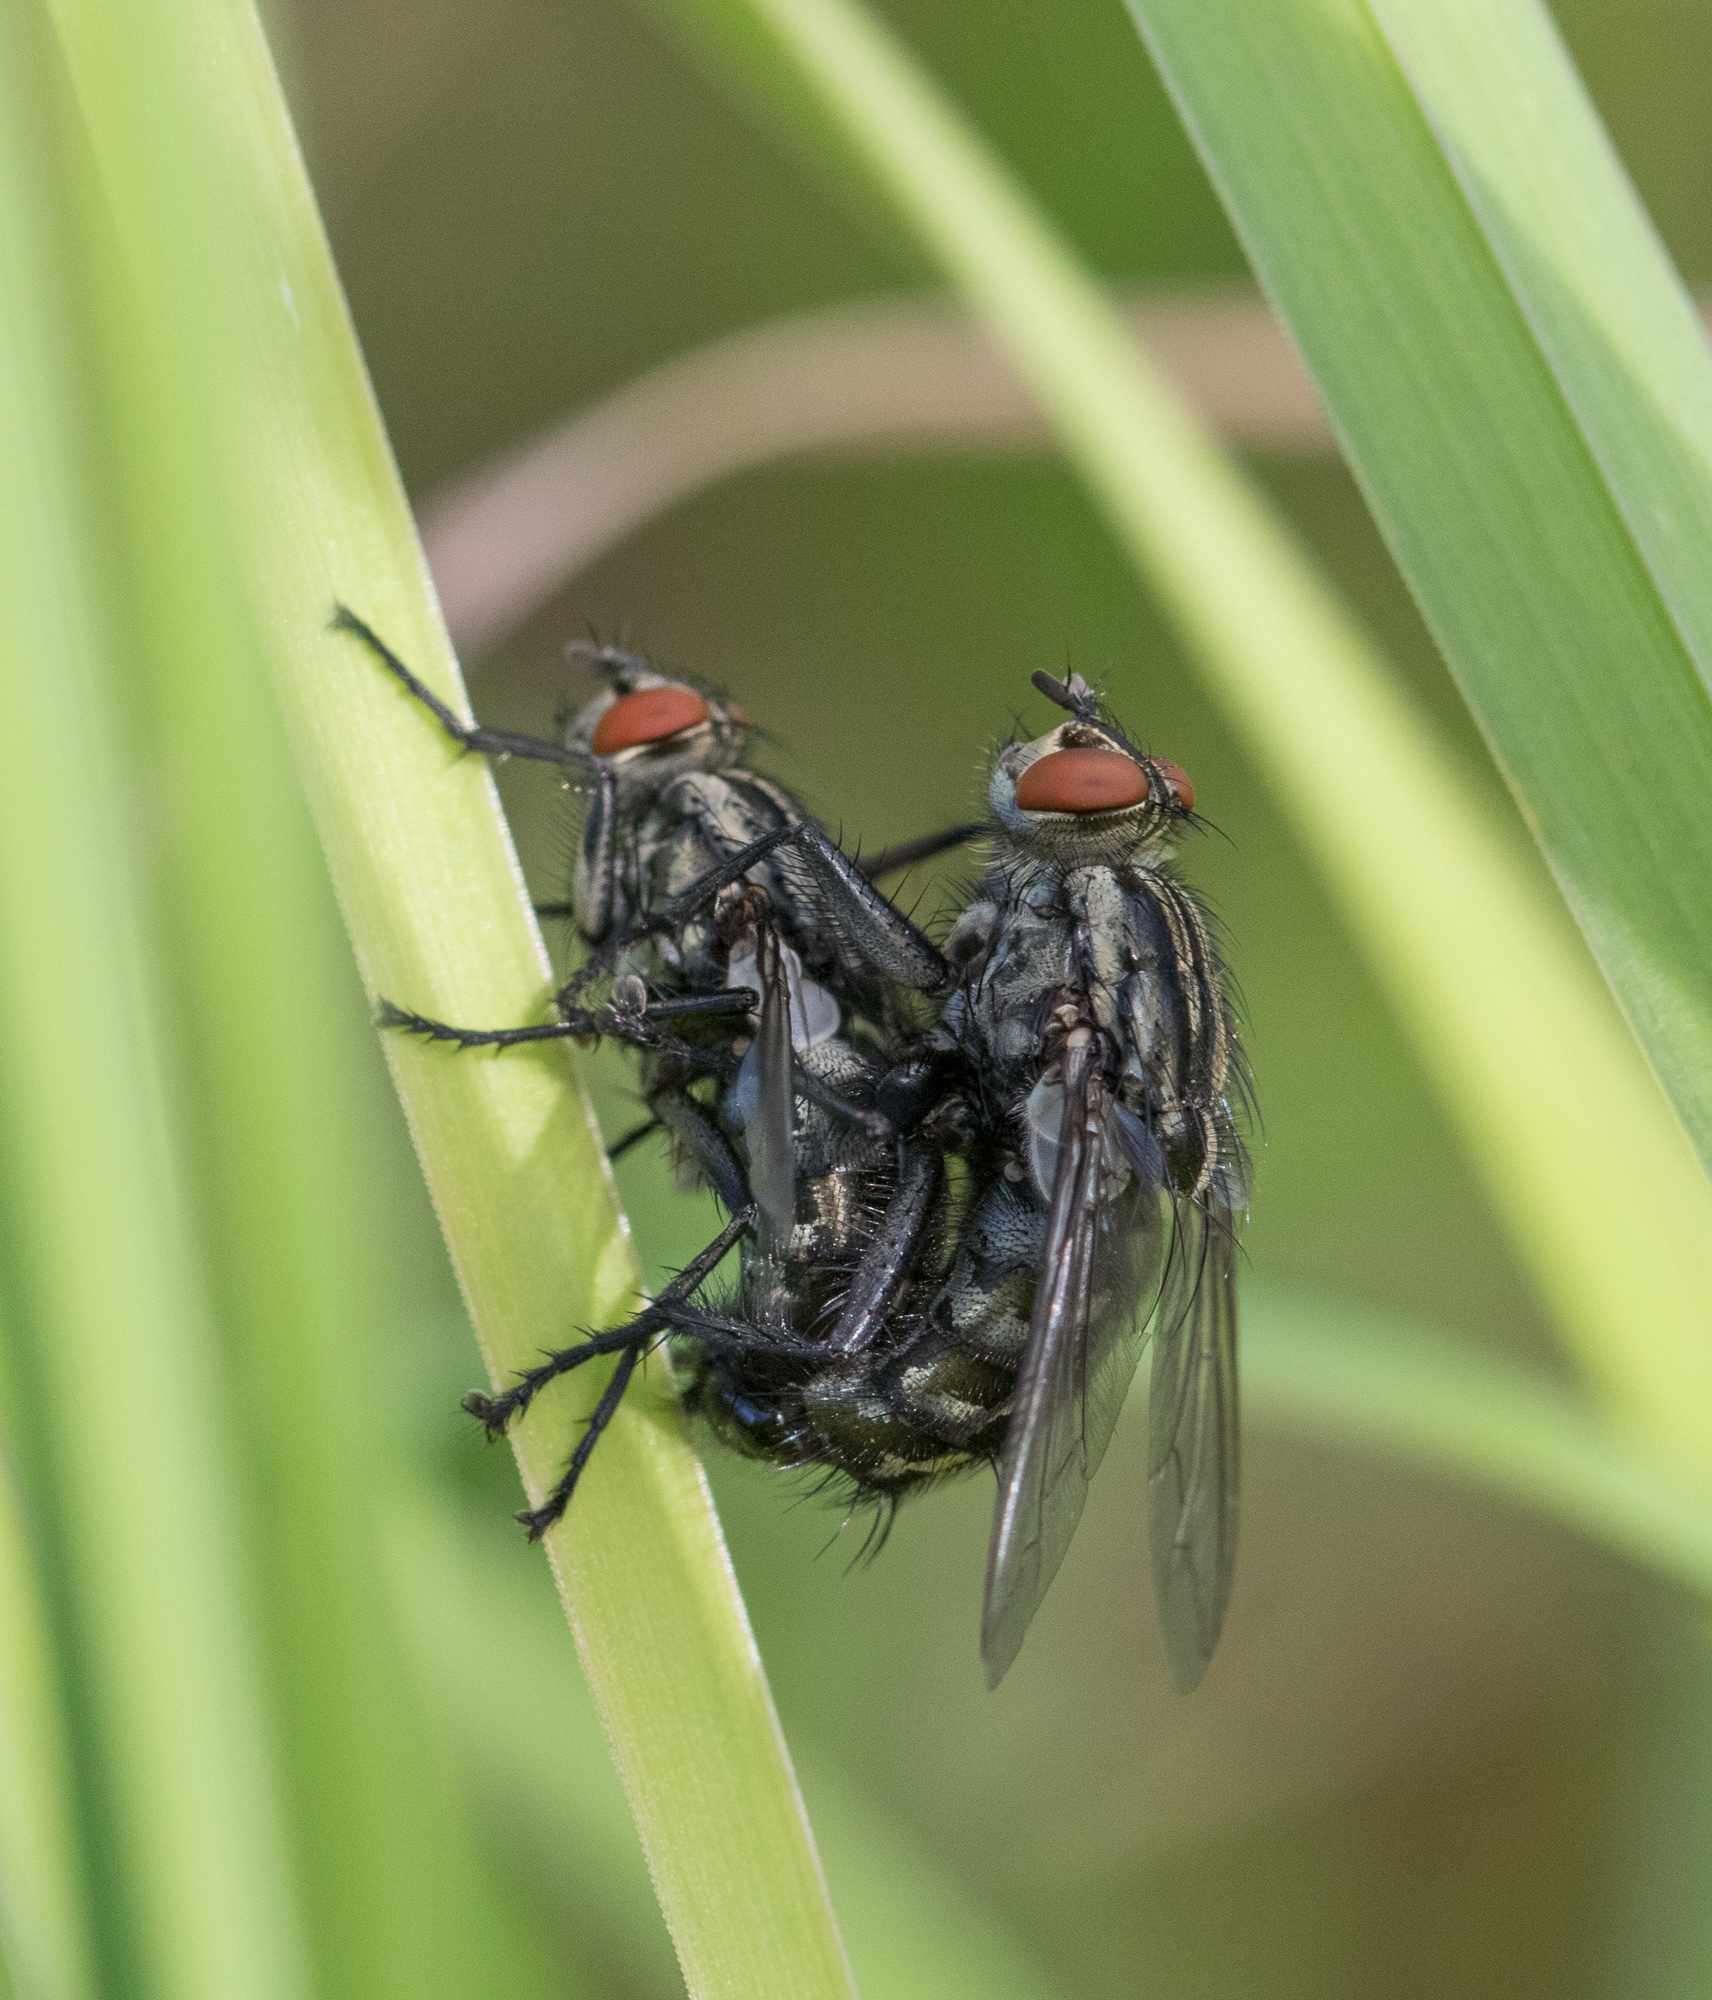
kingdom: Animalia
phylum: Arthropoda
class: Insecta
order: Diptera
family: Sarcophagidae
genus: Sarcophaga
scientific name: Sarcophaga
